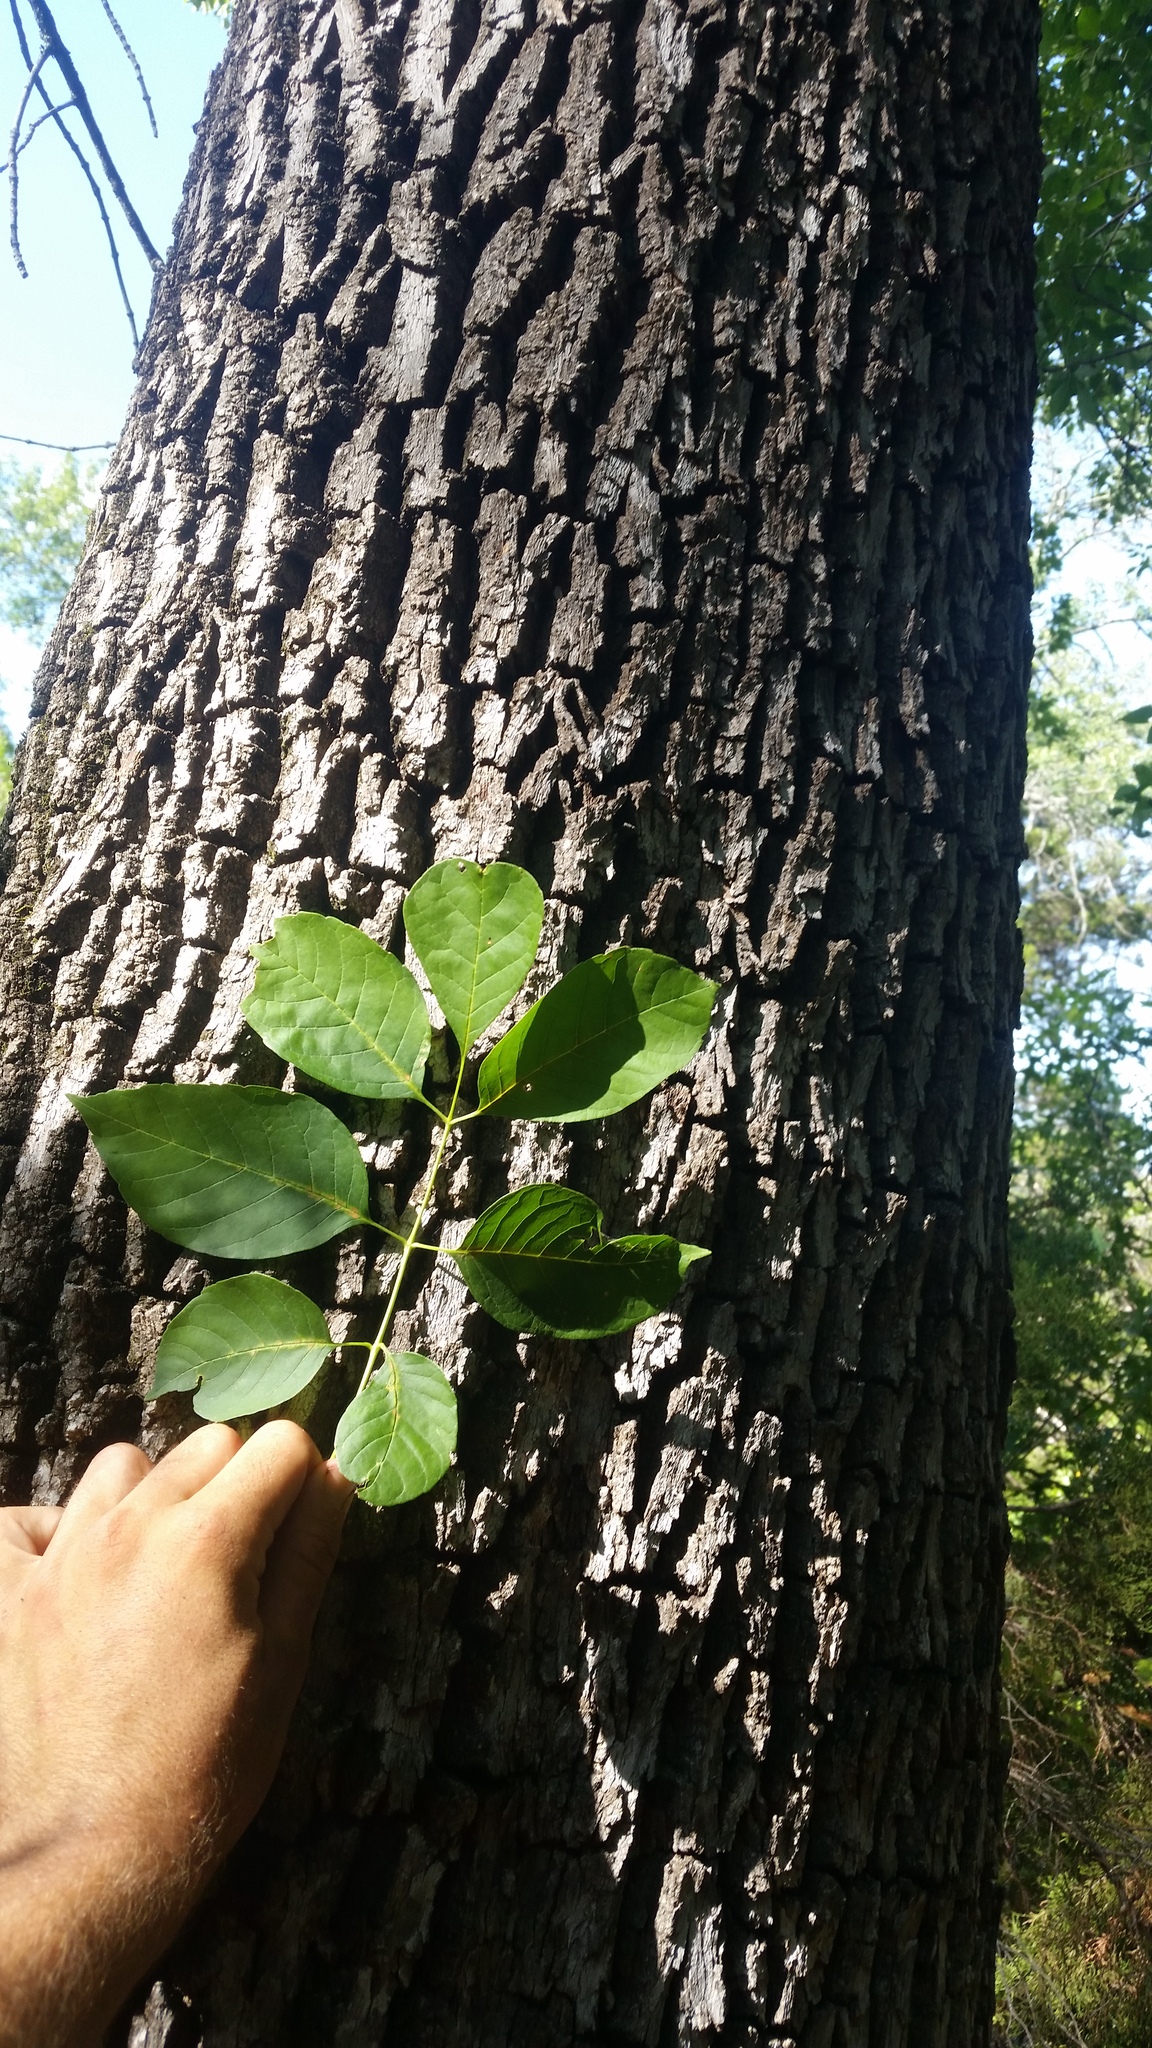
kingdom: Plantae
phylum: Tracheophyta
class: Magnoliopsida
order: Lamiales
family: Oleaceae
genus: Fraxinus
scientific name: Fraxinus albicans
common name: Texas ash
